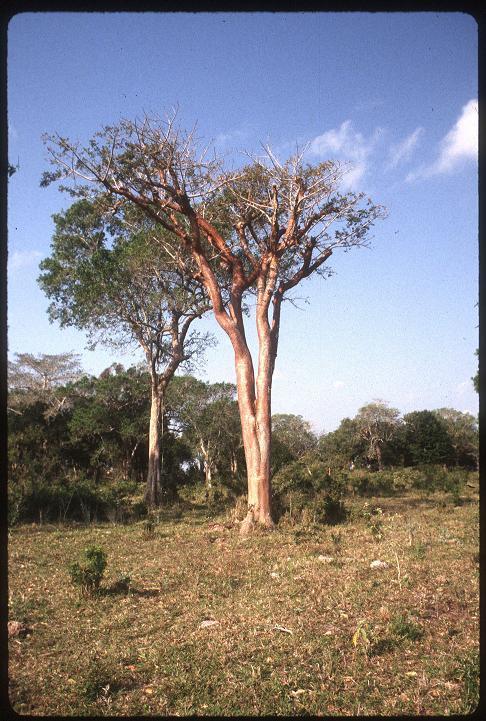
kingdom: Plantae
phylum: Tracheophyta
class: Magnoliopsida
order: Sapindales
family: Burseraceae
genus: Bursera
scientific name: Bursera simaruba
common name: Turpentine tree
